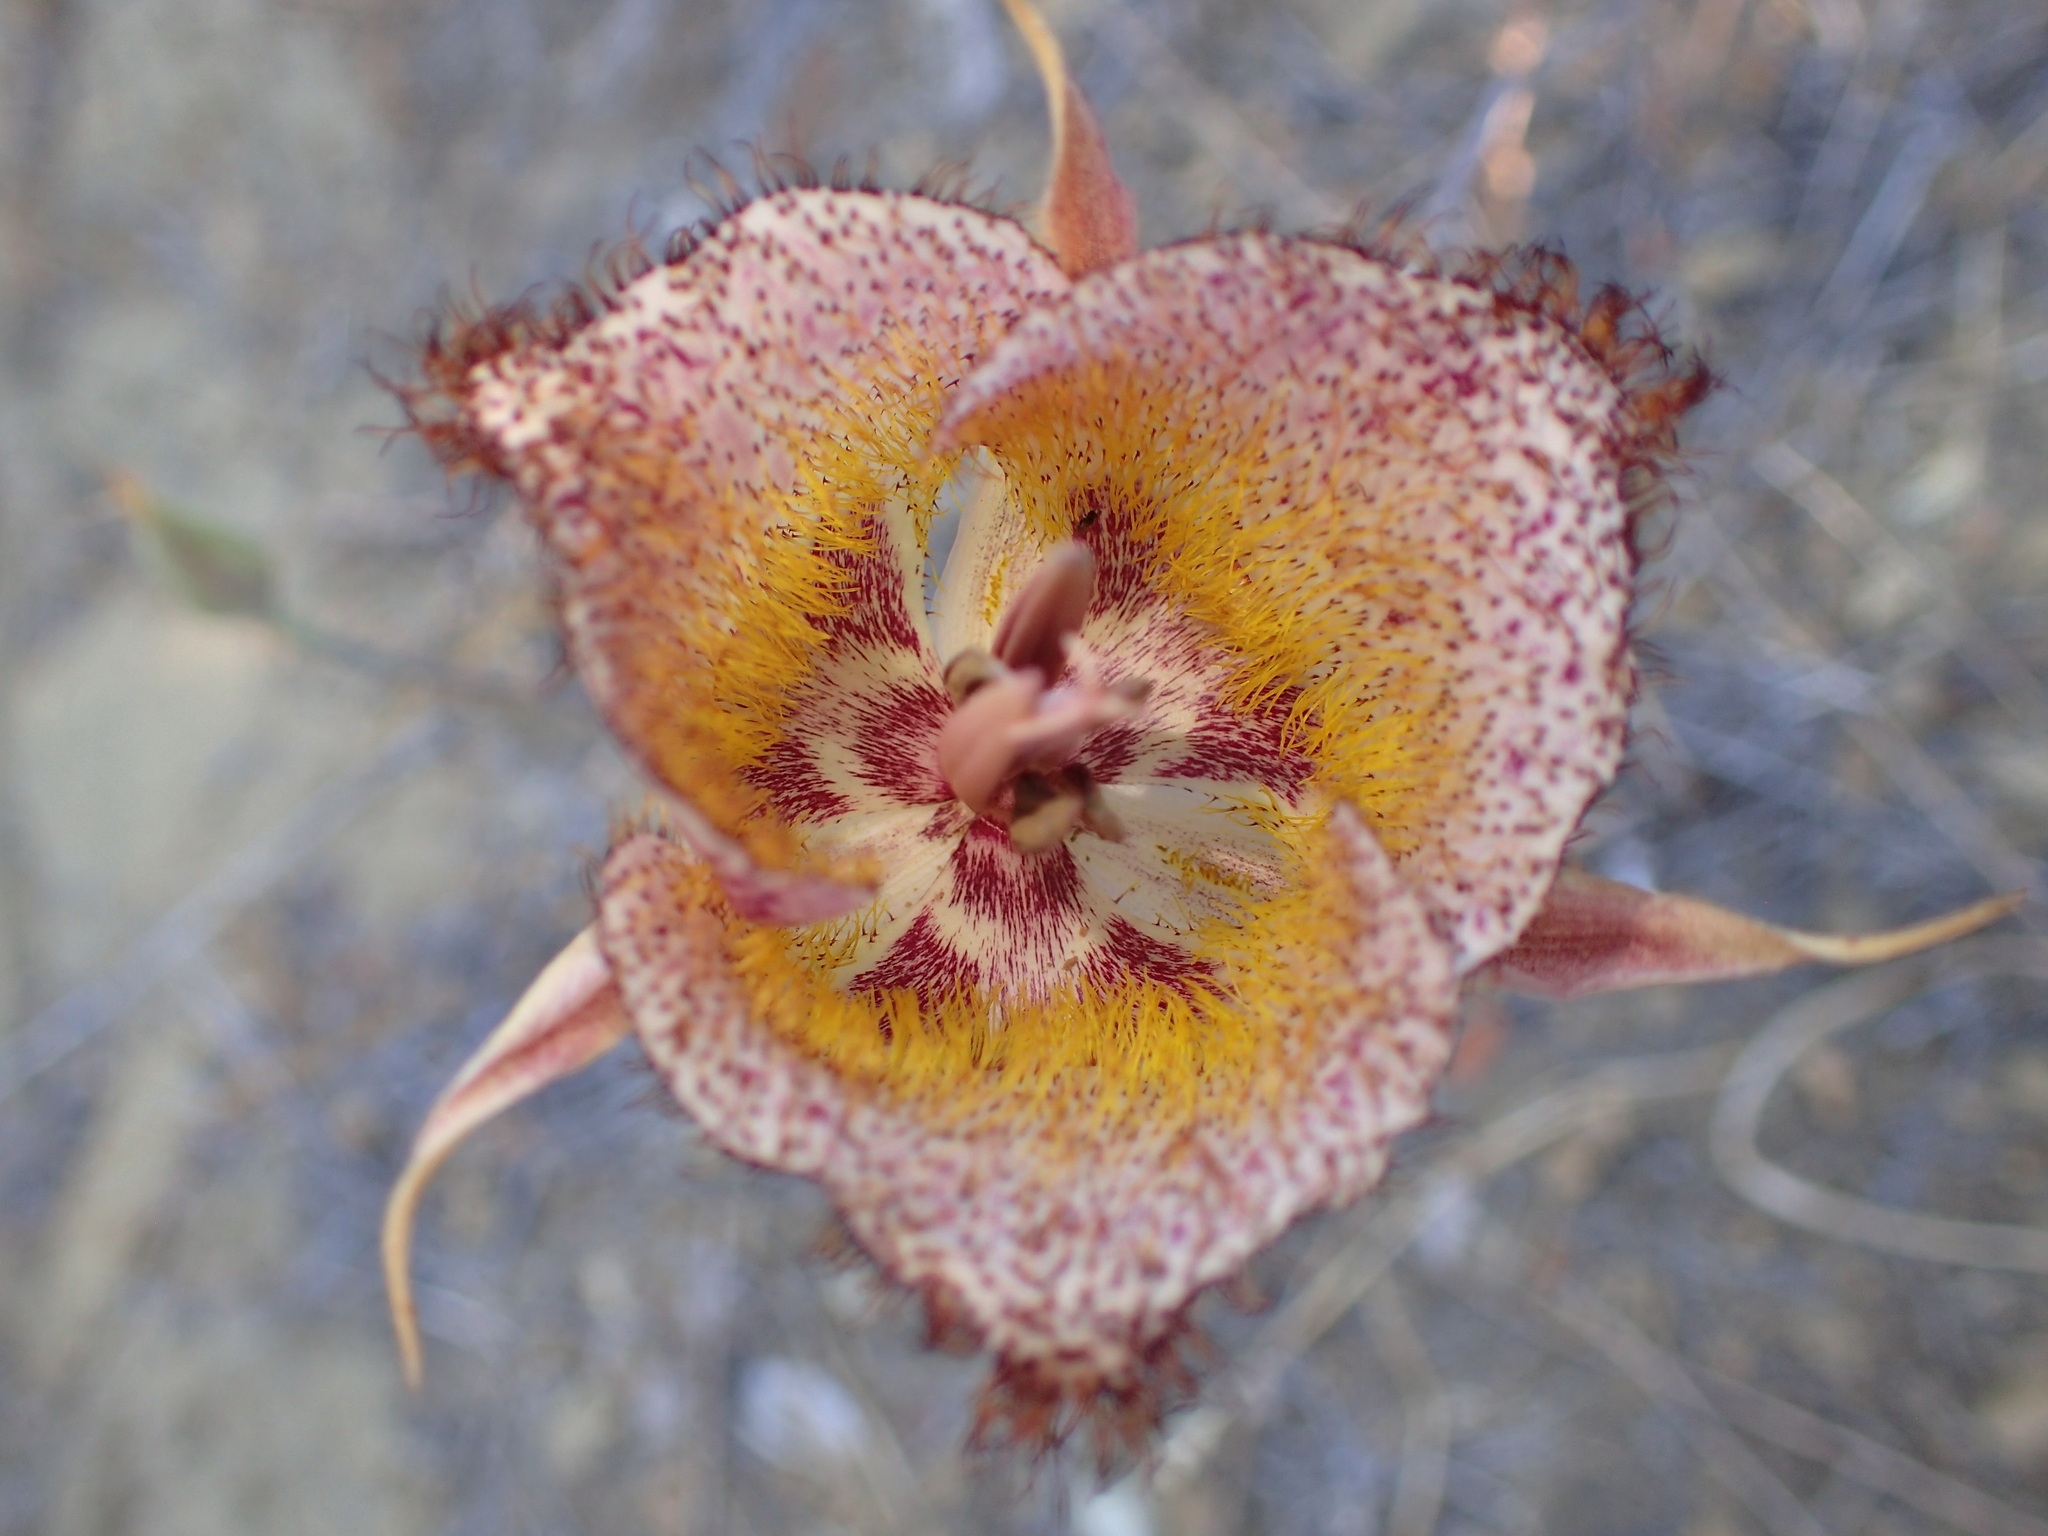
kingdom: Plantae
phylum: Tracheophyta
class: Liliopsida
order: Liliales
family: Liliaceae
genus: Calochortus
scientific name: Calochortus fimbriatus
